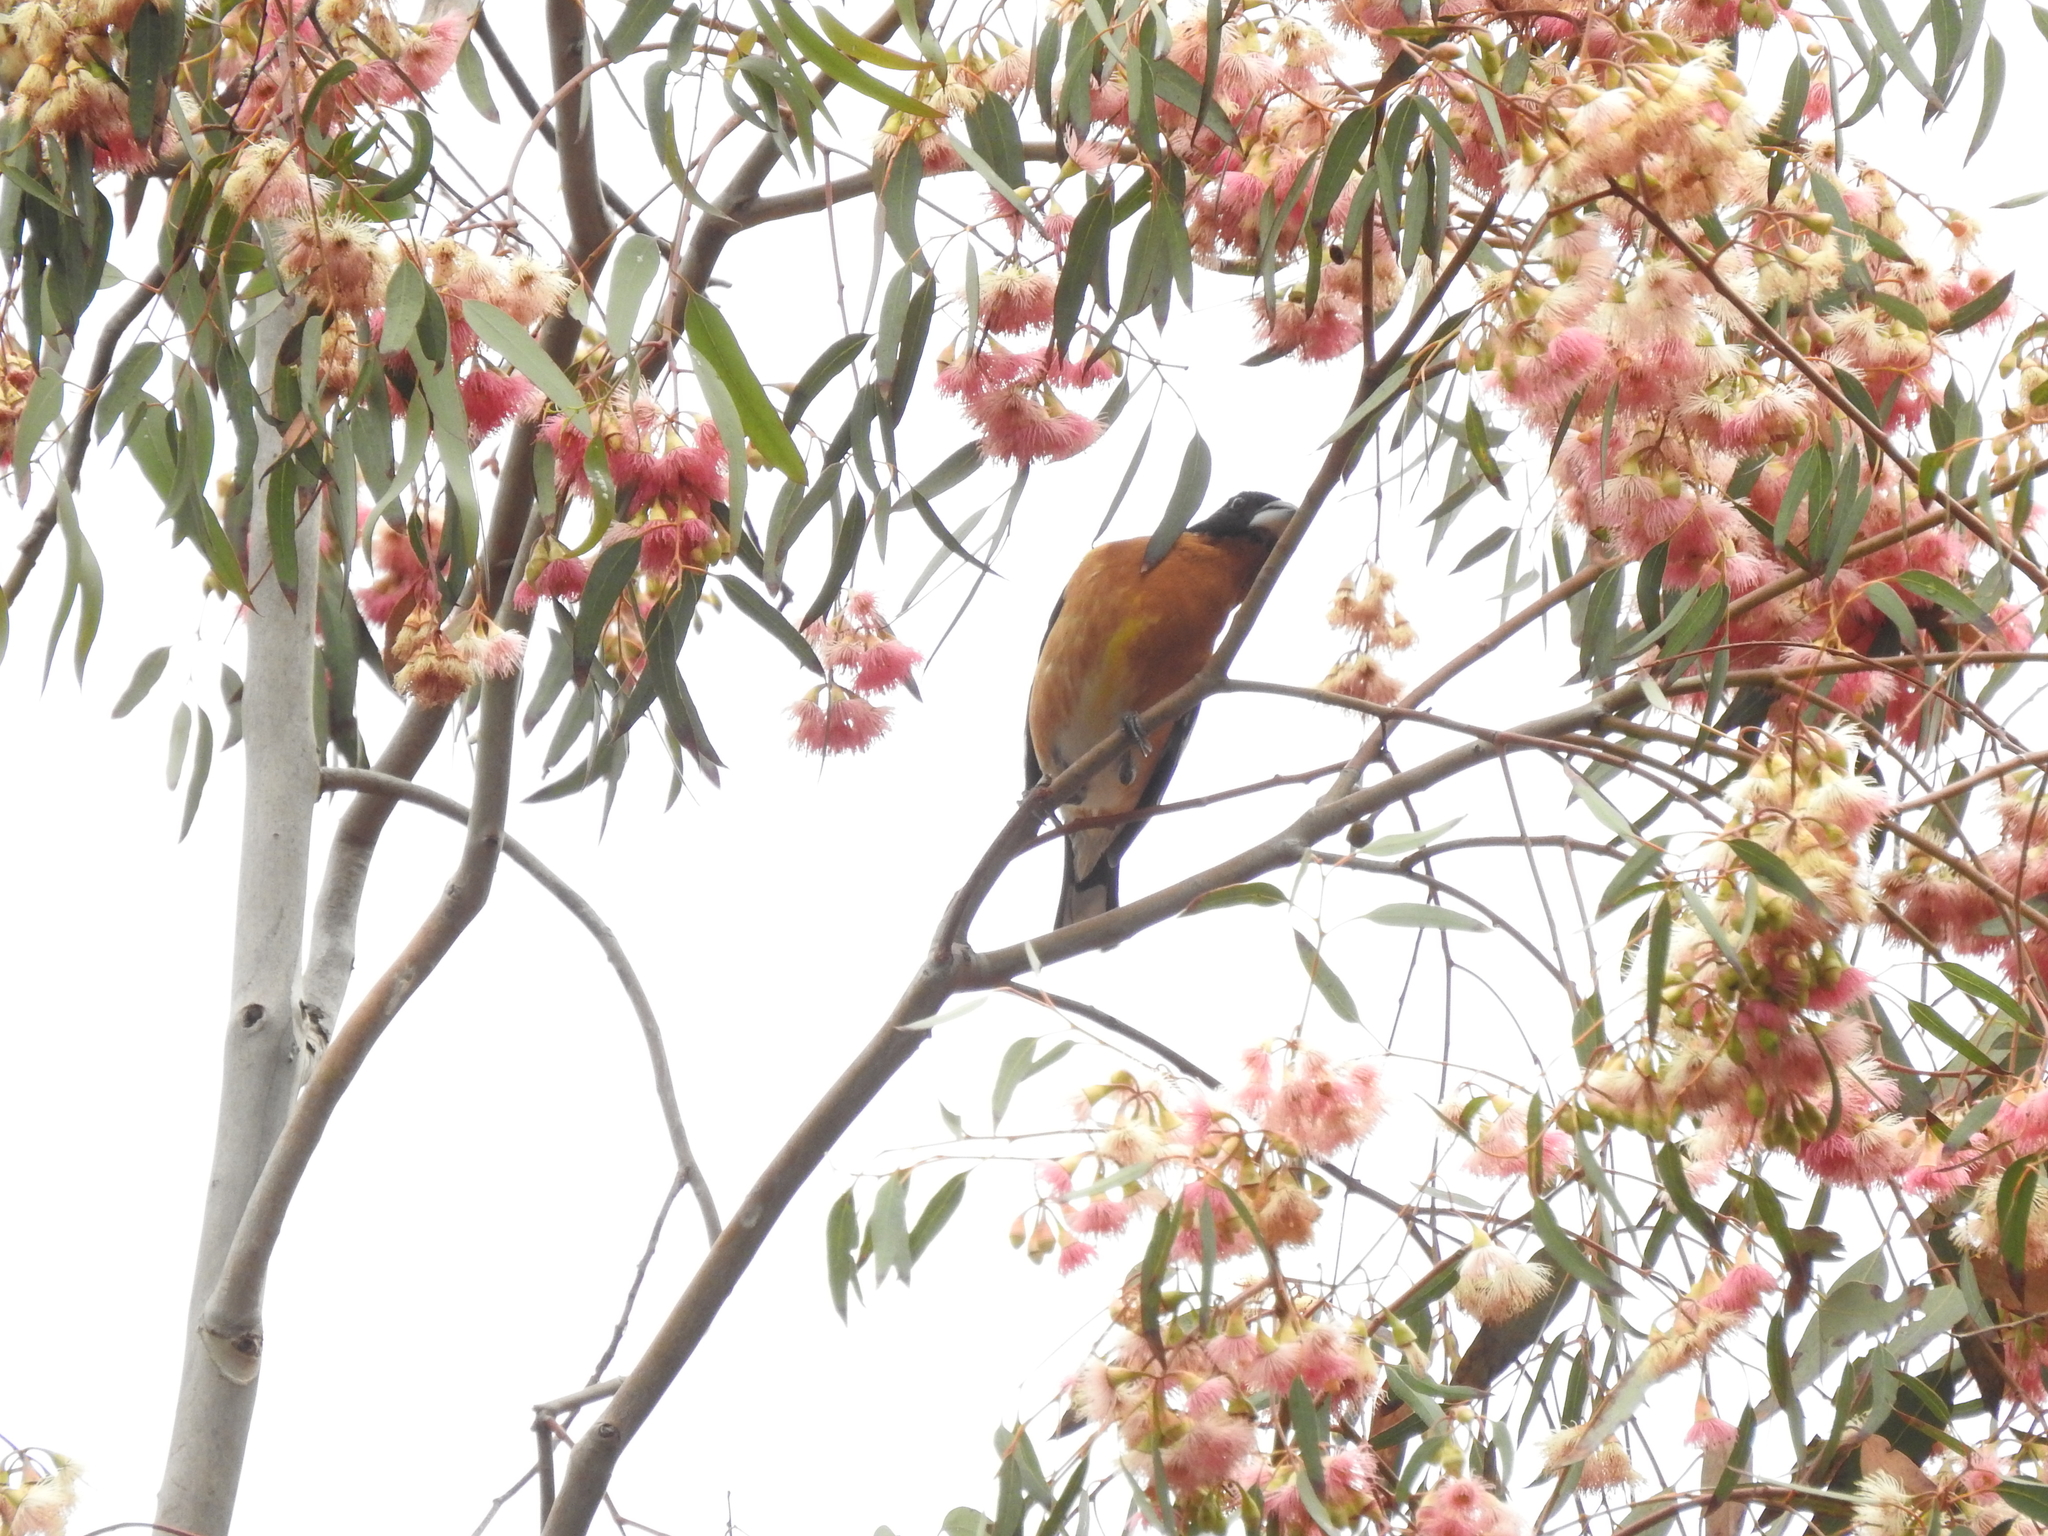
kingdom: Animalia
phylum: Chordata
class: Aves
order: Passeriformes
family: Cardinalidae
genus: Pheucticus
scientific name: Pheucticus melanocephalus
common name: Black-headed grosbeak
